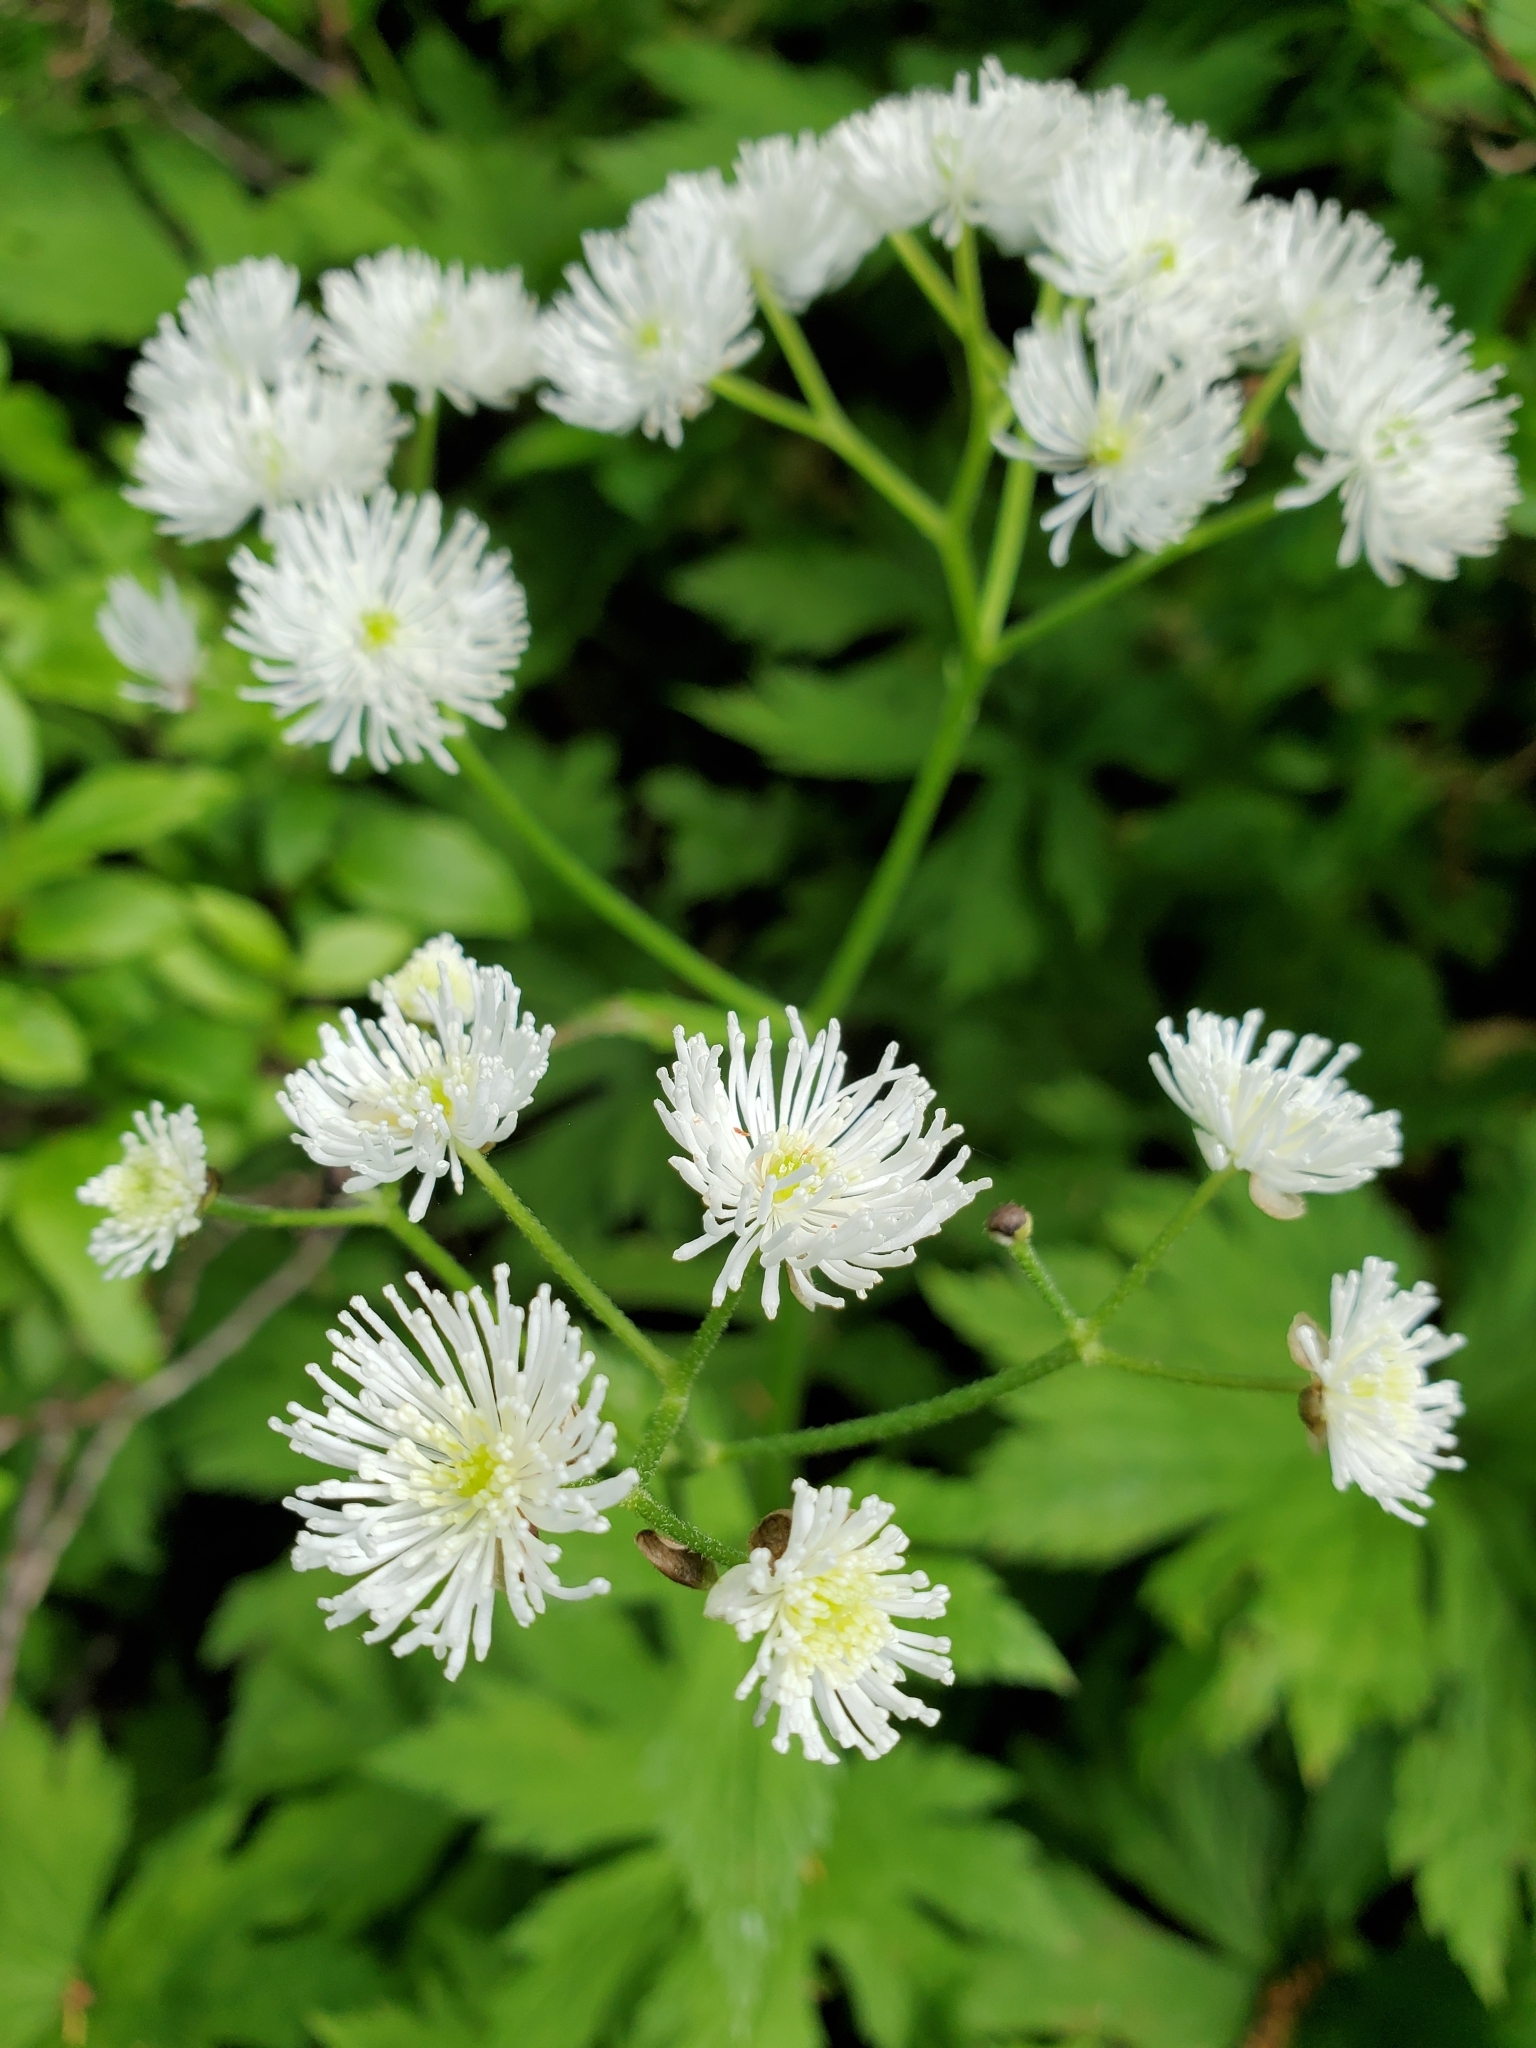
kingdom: Plantae
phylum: Tracheophyta
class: Magnoliopsida
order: Ranunculales
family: Ranunculaceae
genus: Trautvetteria
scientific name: Trautvetteria carolinensis
